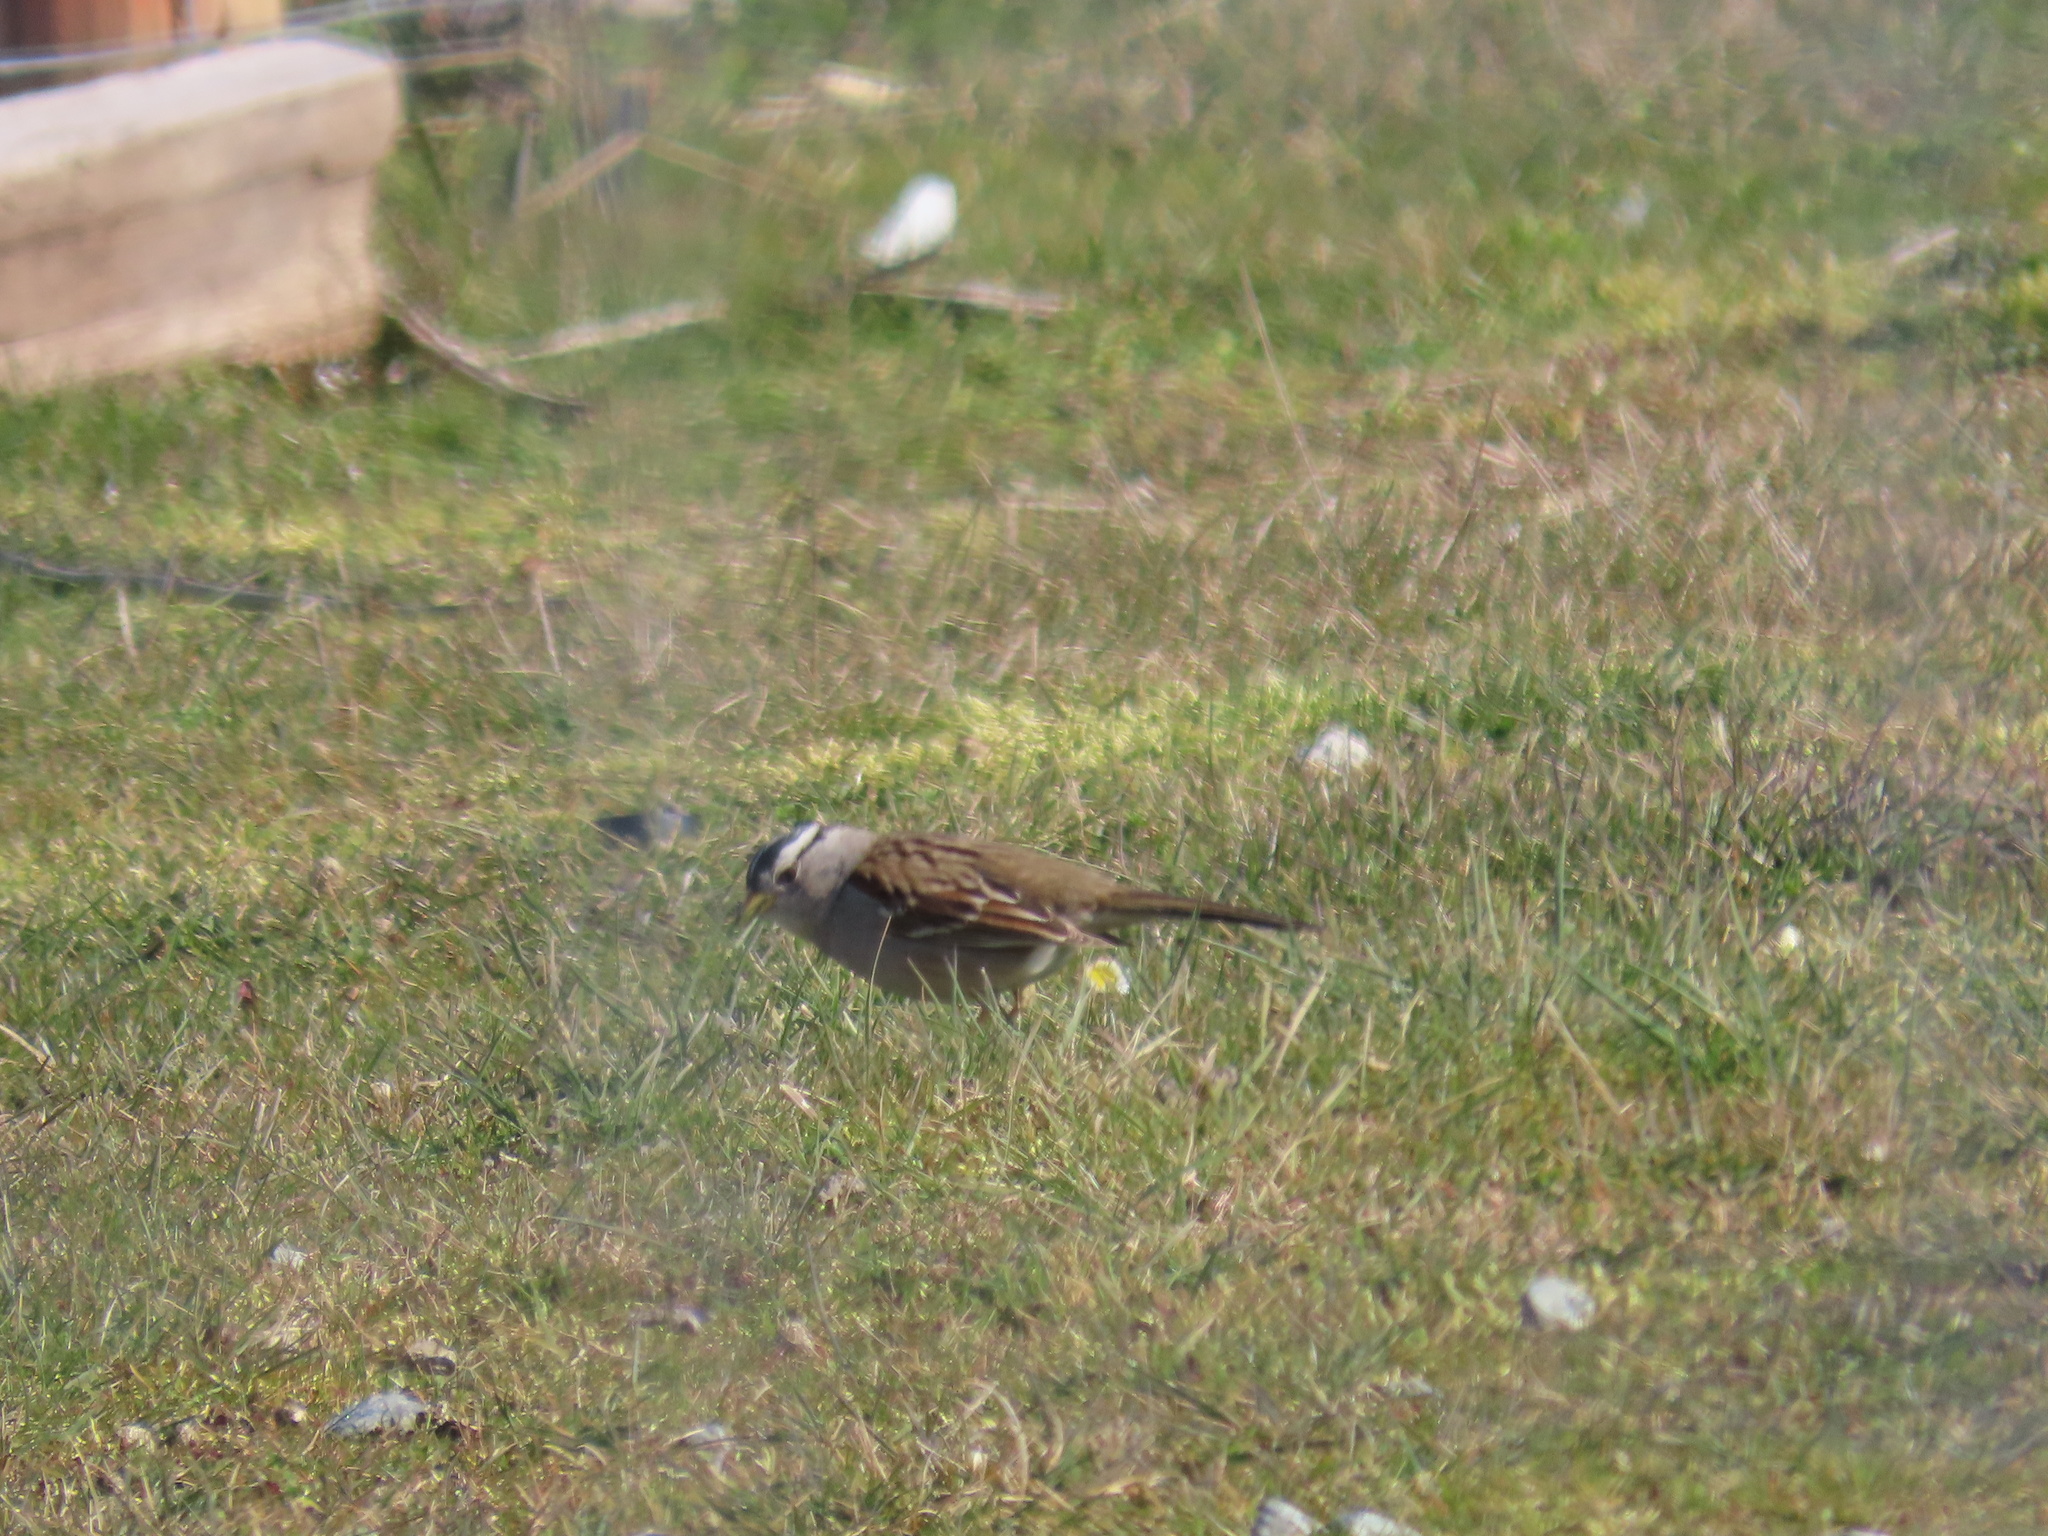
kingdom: Animalia
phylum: Chordata
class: Aves
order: Passeriformes
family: Passerellidae
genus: Zonotrichia
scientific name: Zonotrichia leucophrys
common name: White-crowned sparrow
